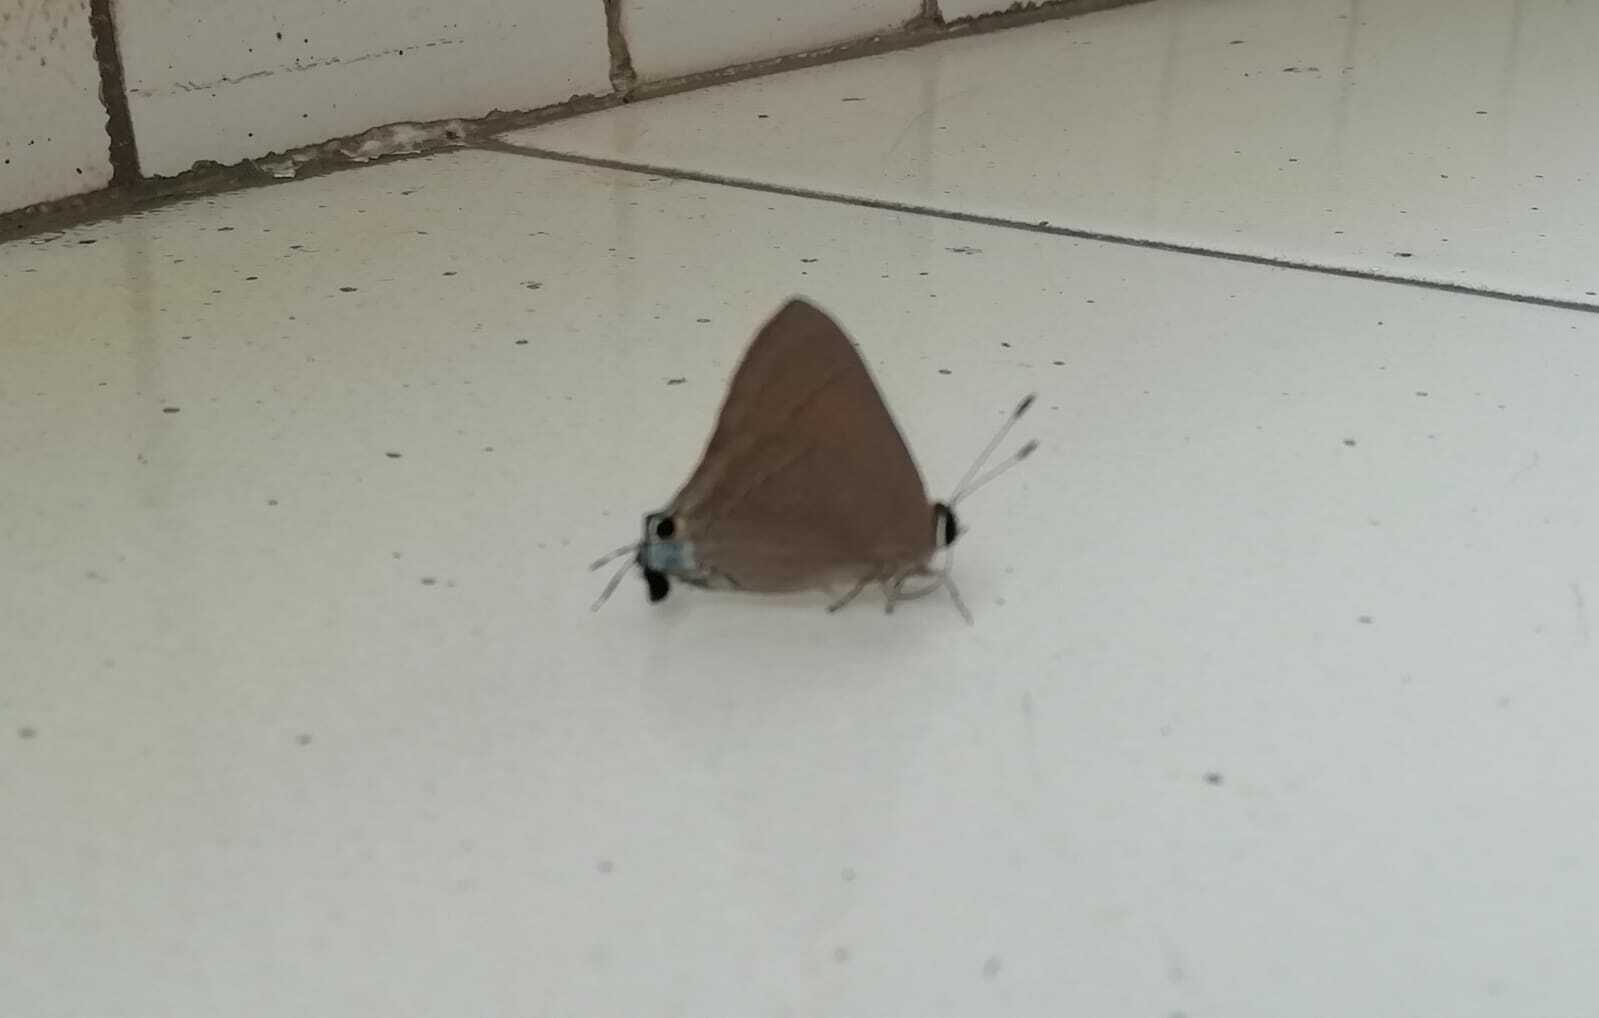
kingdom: Animalia
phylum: Arthropoda
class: Insecta
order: Lepidoptera
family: Lycaenidae
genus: Rapala
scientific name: Rapala iarbus
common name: Common red flash
